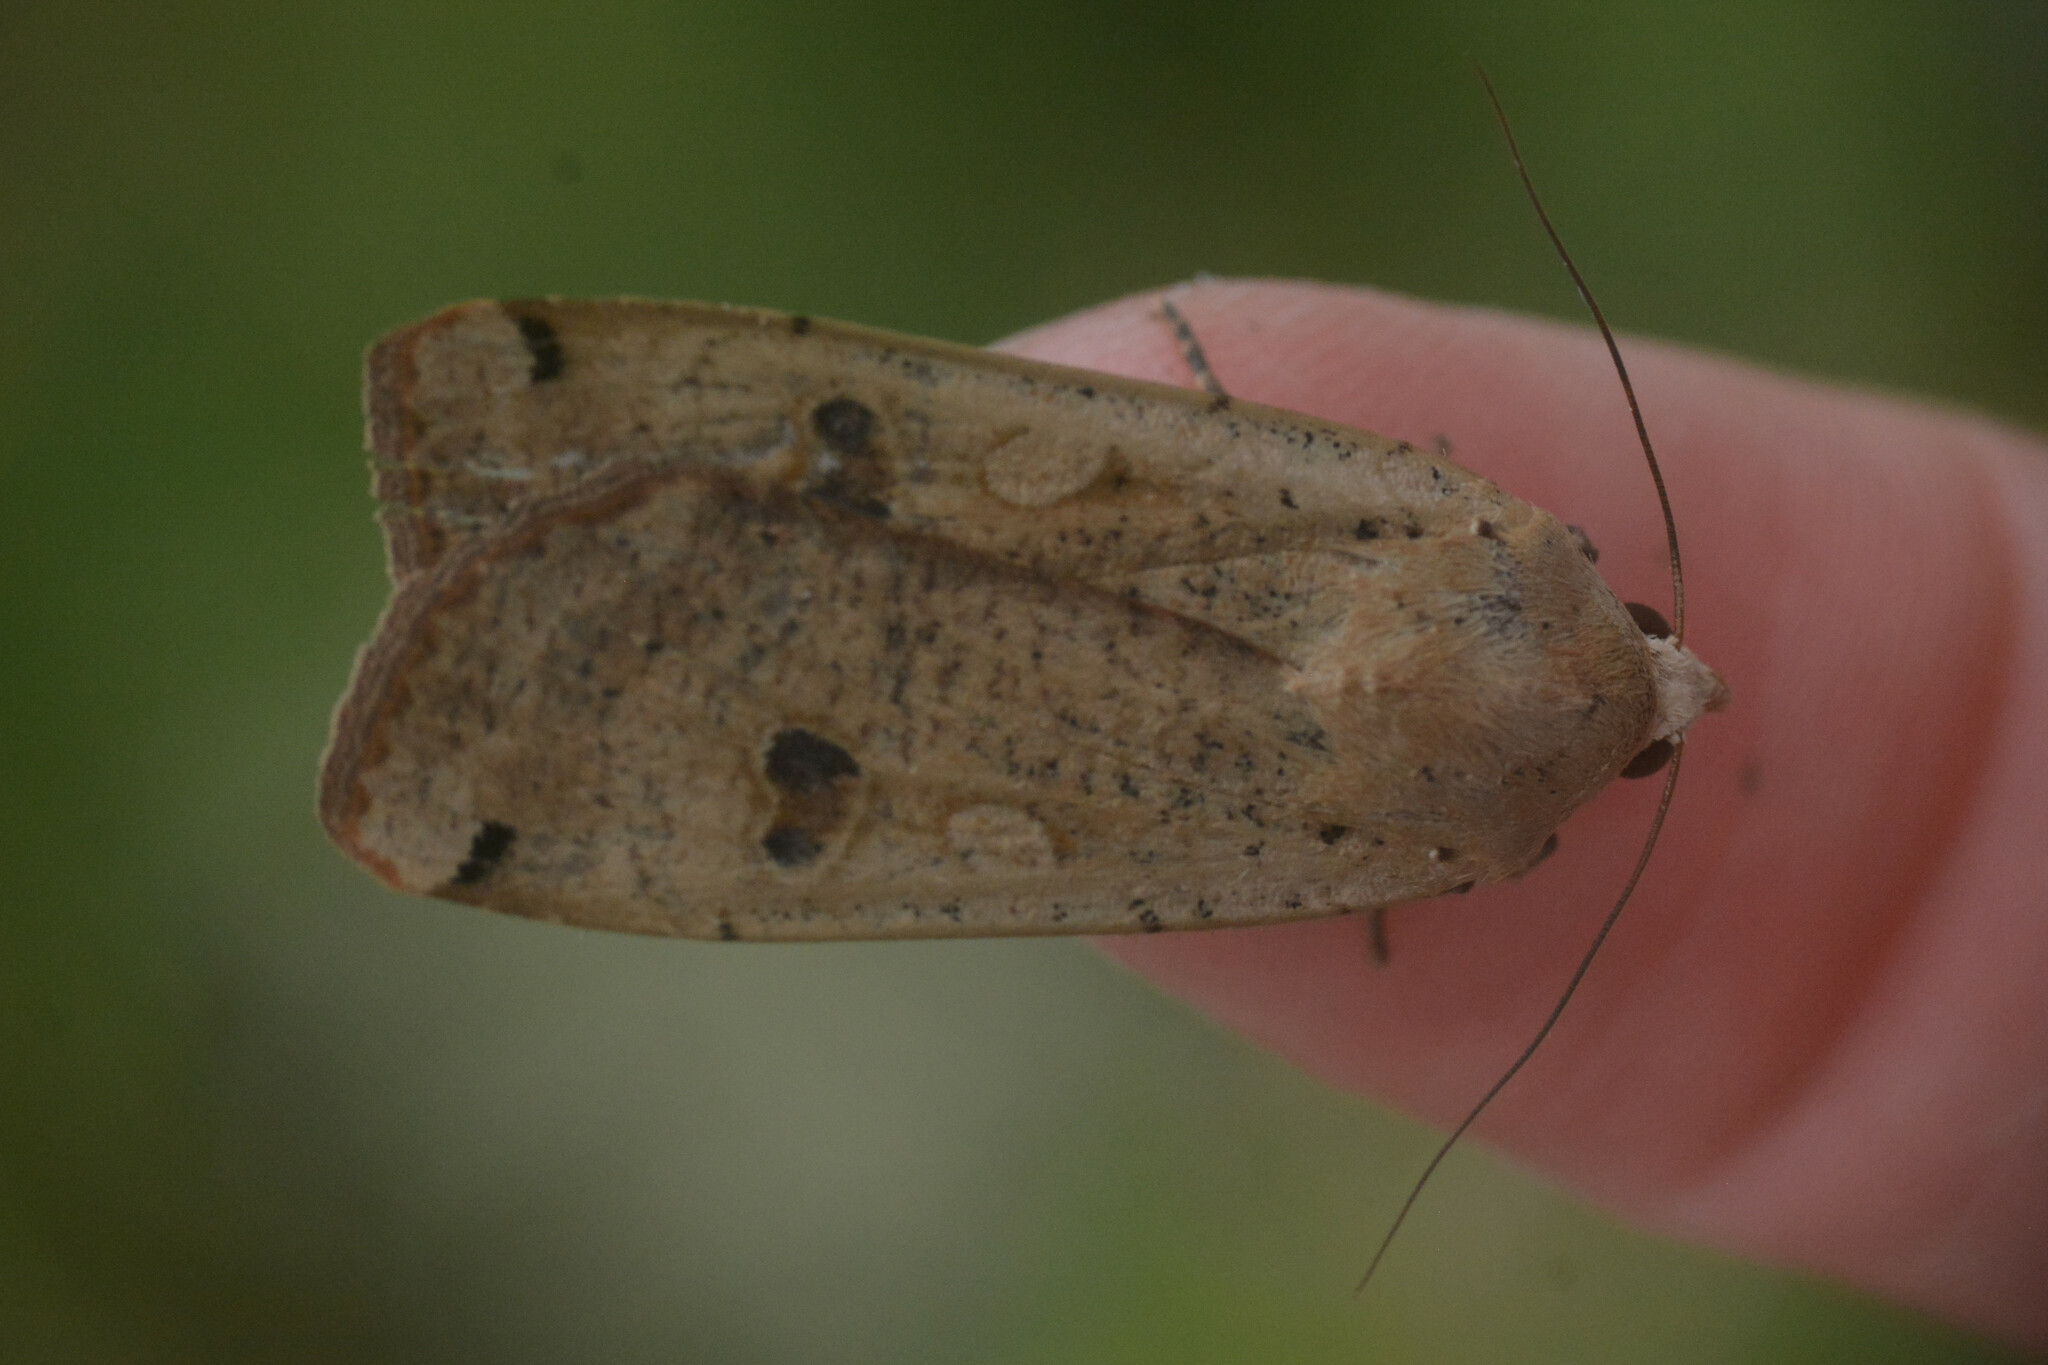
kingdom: Animalia
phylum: Arthropoda
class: Insecta
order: Lepidoptera
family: Noctuidae
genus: Noctua
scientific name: Noctua pronuba
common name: Large yellow underwing
